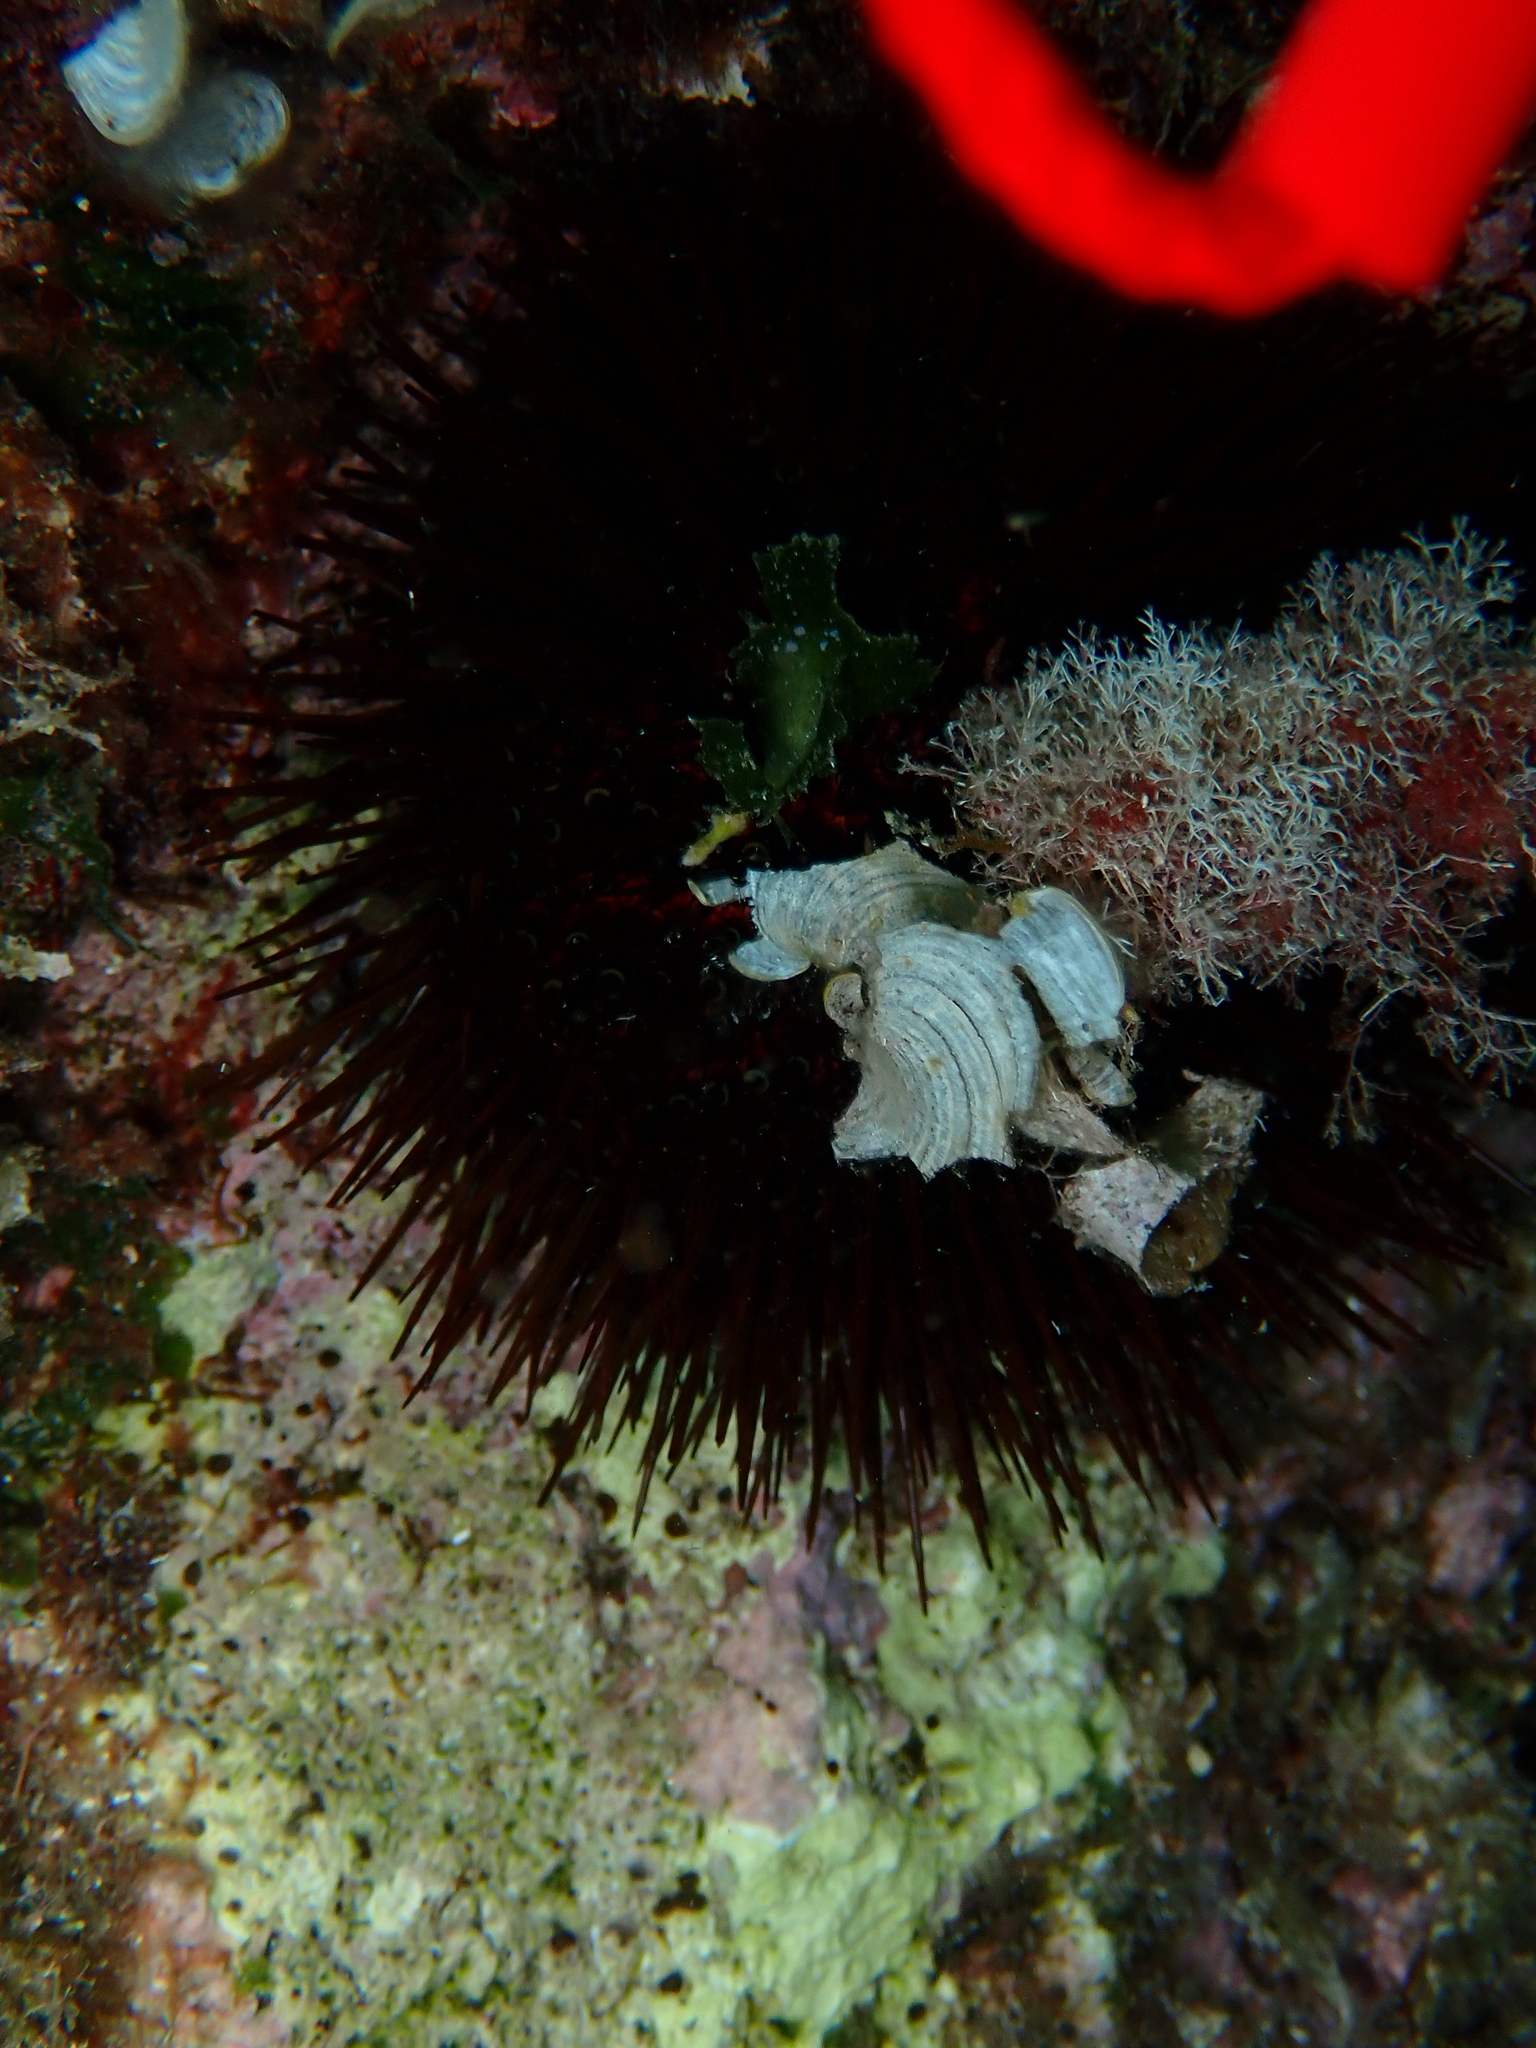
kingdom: Animalia
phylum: Echinodermata
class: Echinoidea
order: Camarodonta
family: Parechinidae
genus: Paracentrotus
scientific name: Paracentrotus lividus
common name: Purple sea urchin
